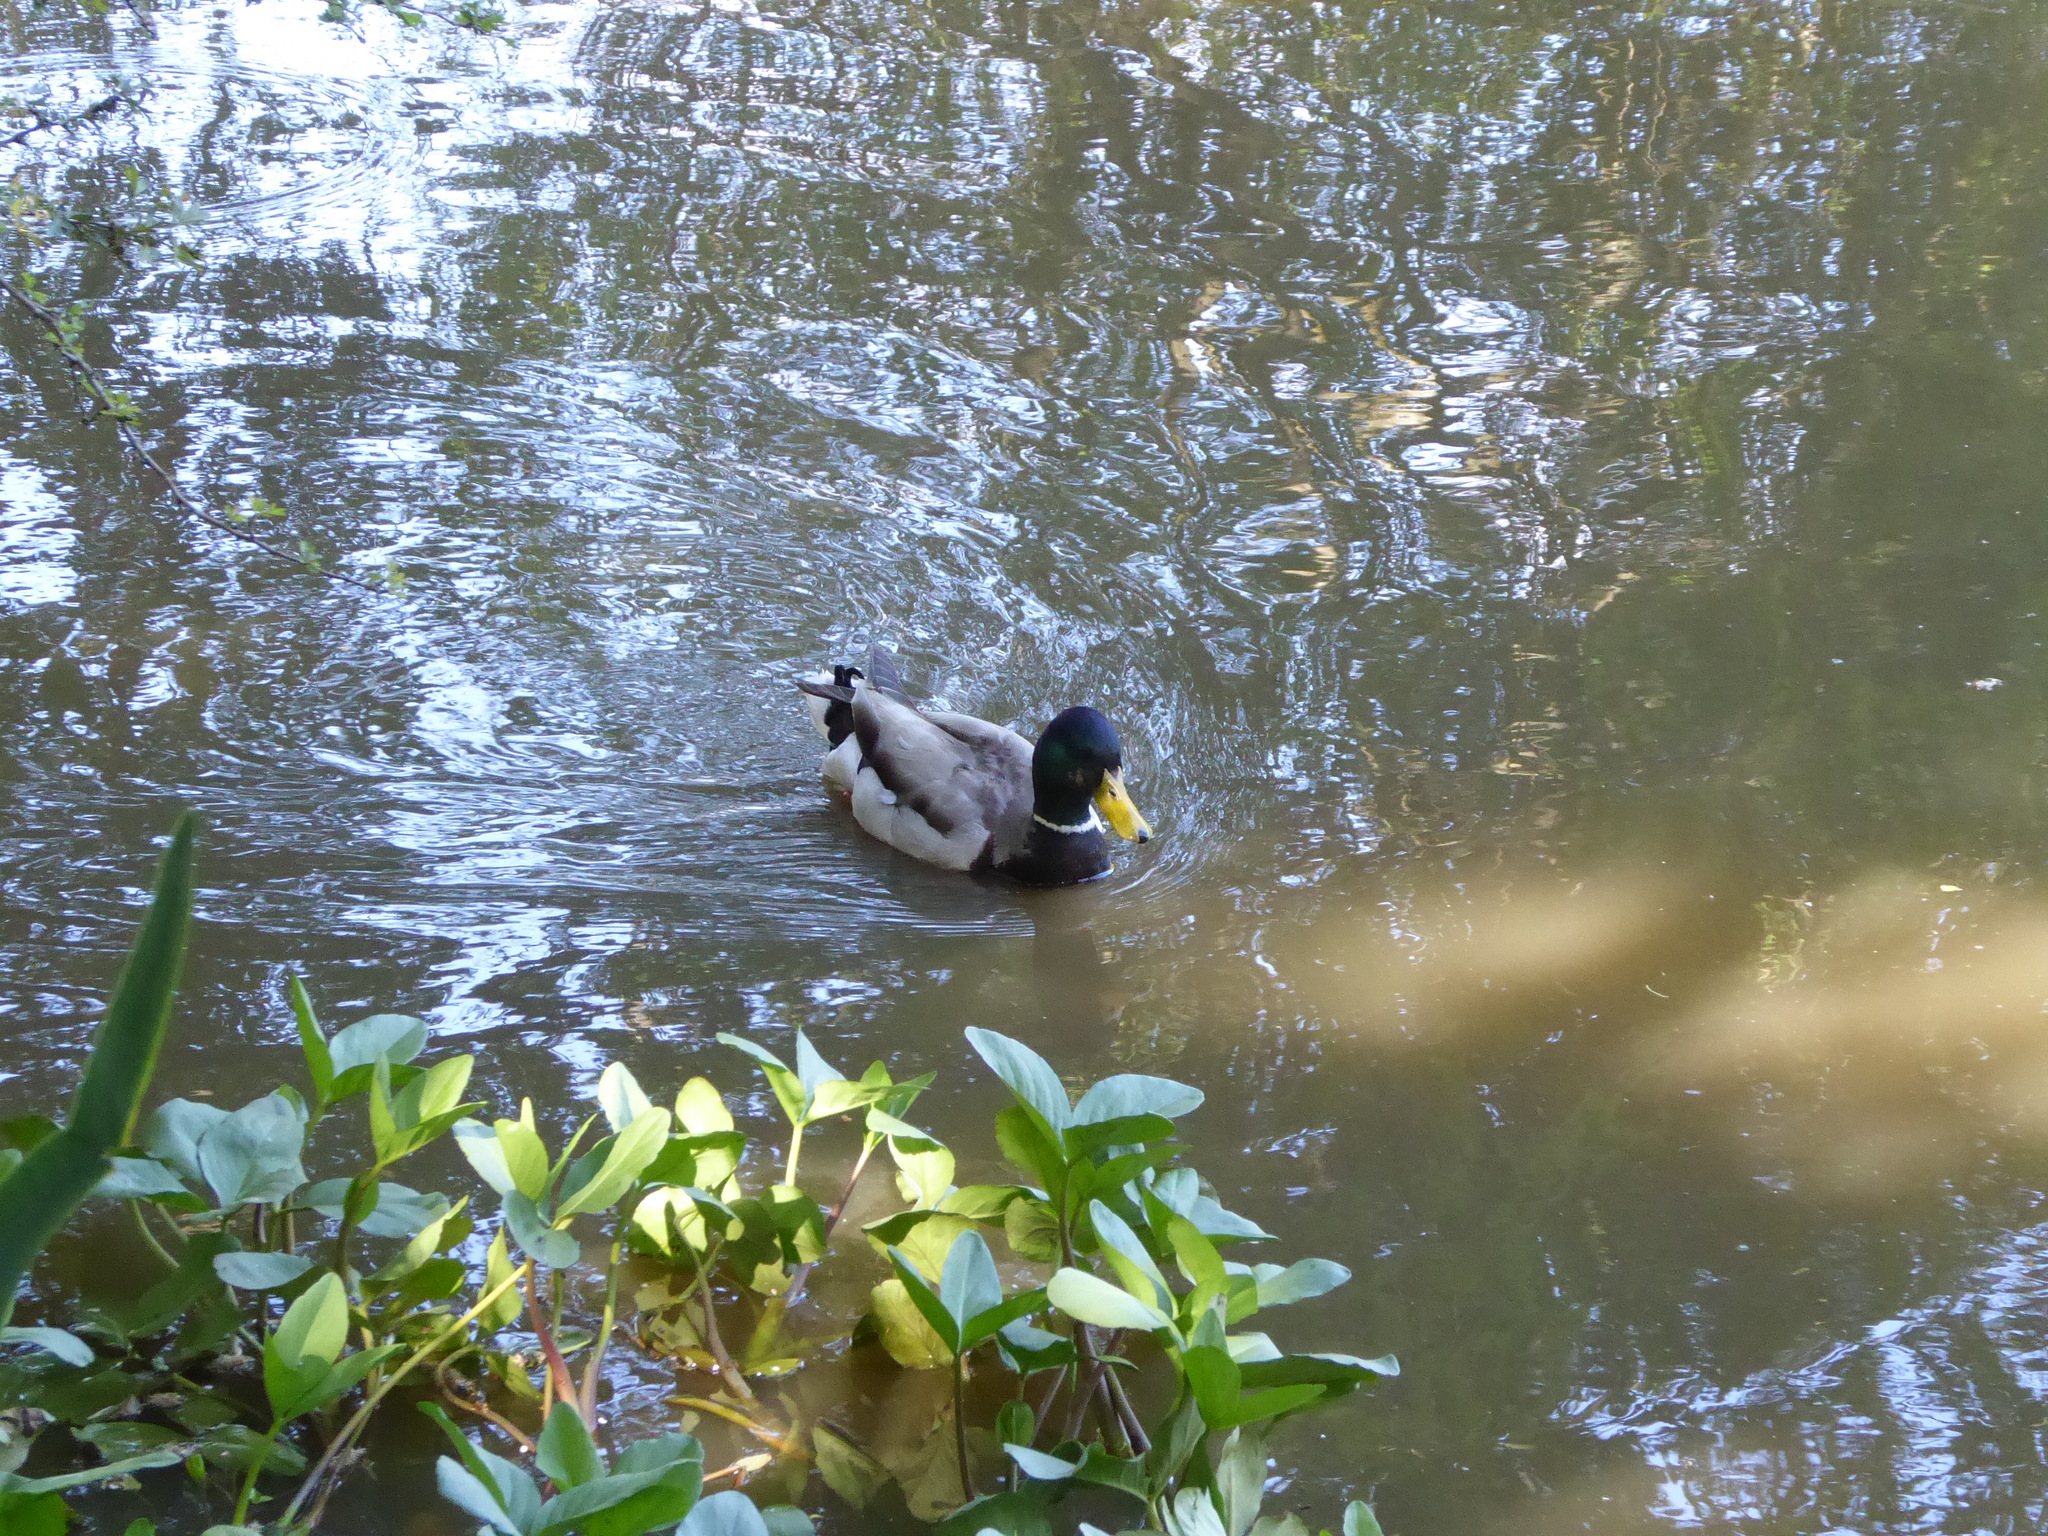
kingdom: Animalia
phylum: Chordata
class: Aves
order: Anseriformes
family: Anatidae
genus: Anas
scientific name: Anas platyrhynchos
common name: Mallard
